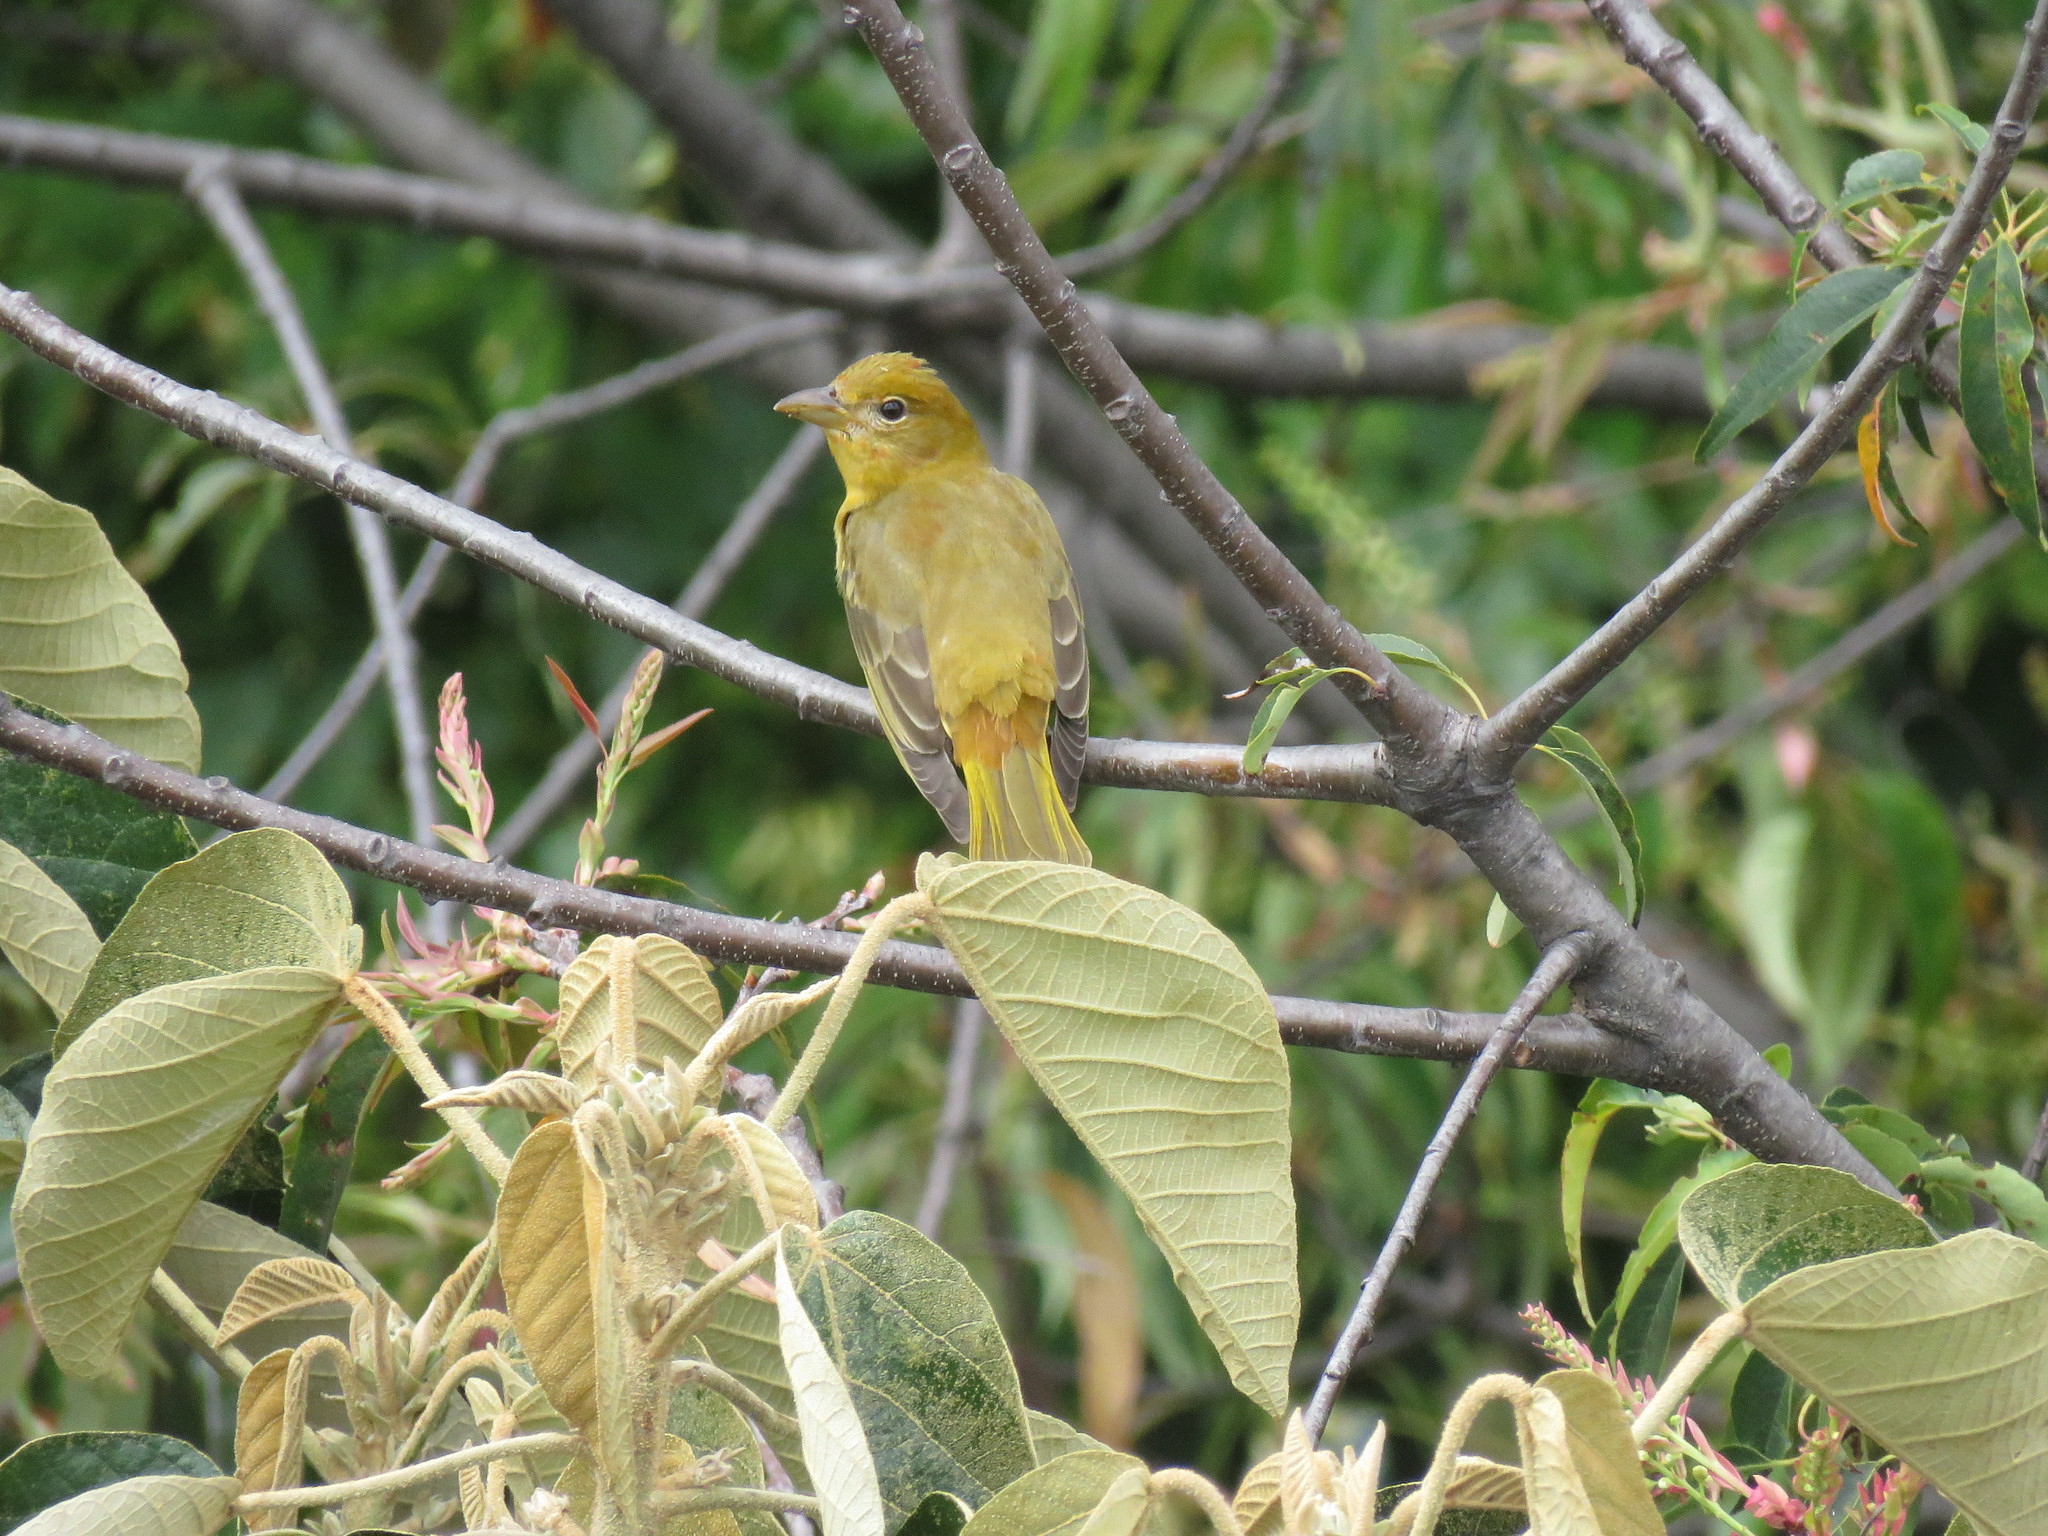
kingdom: Animalia
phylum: Chordata
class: Aves
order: Passeriformes
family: Cardinalidae
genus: Piranga
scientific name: Piranga rubra
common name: Summer tanager
